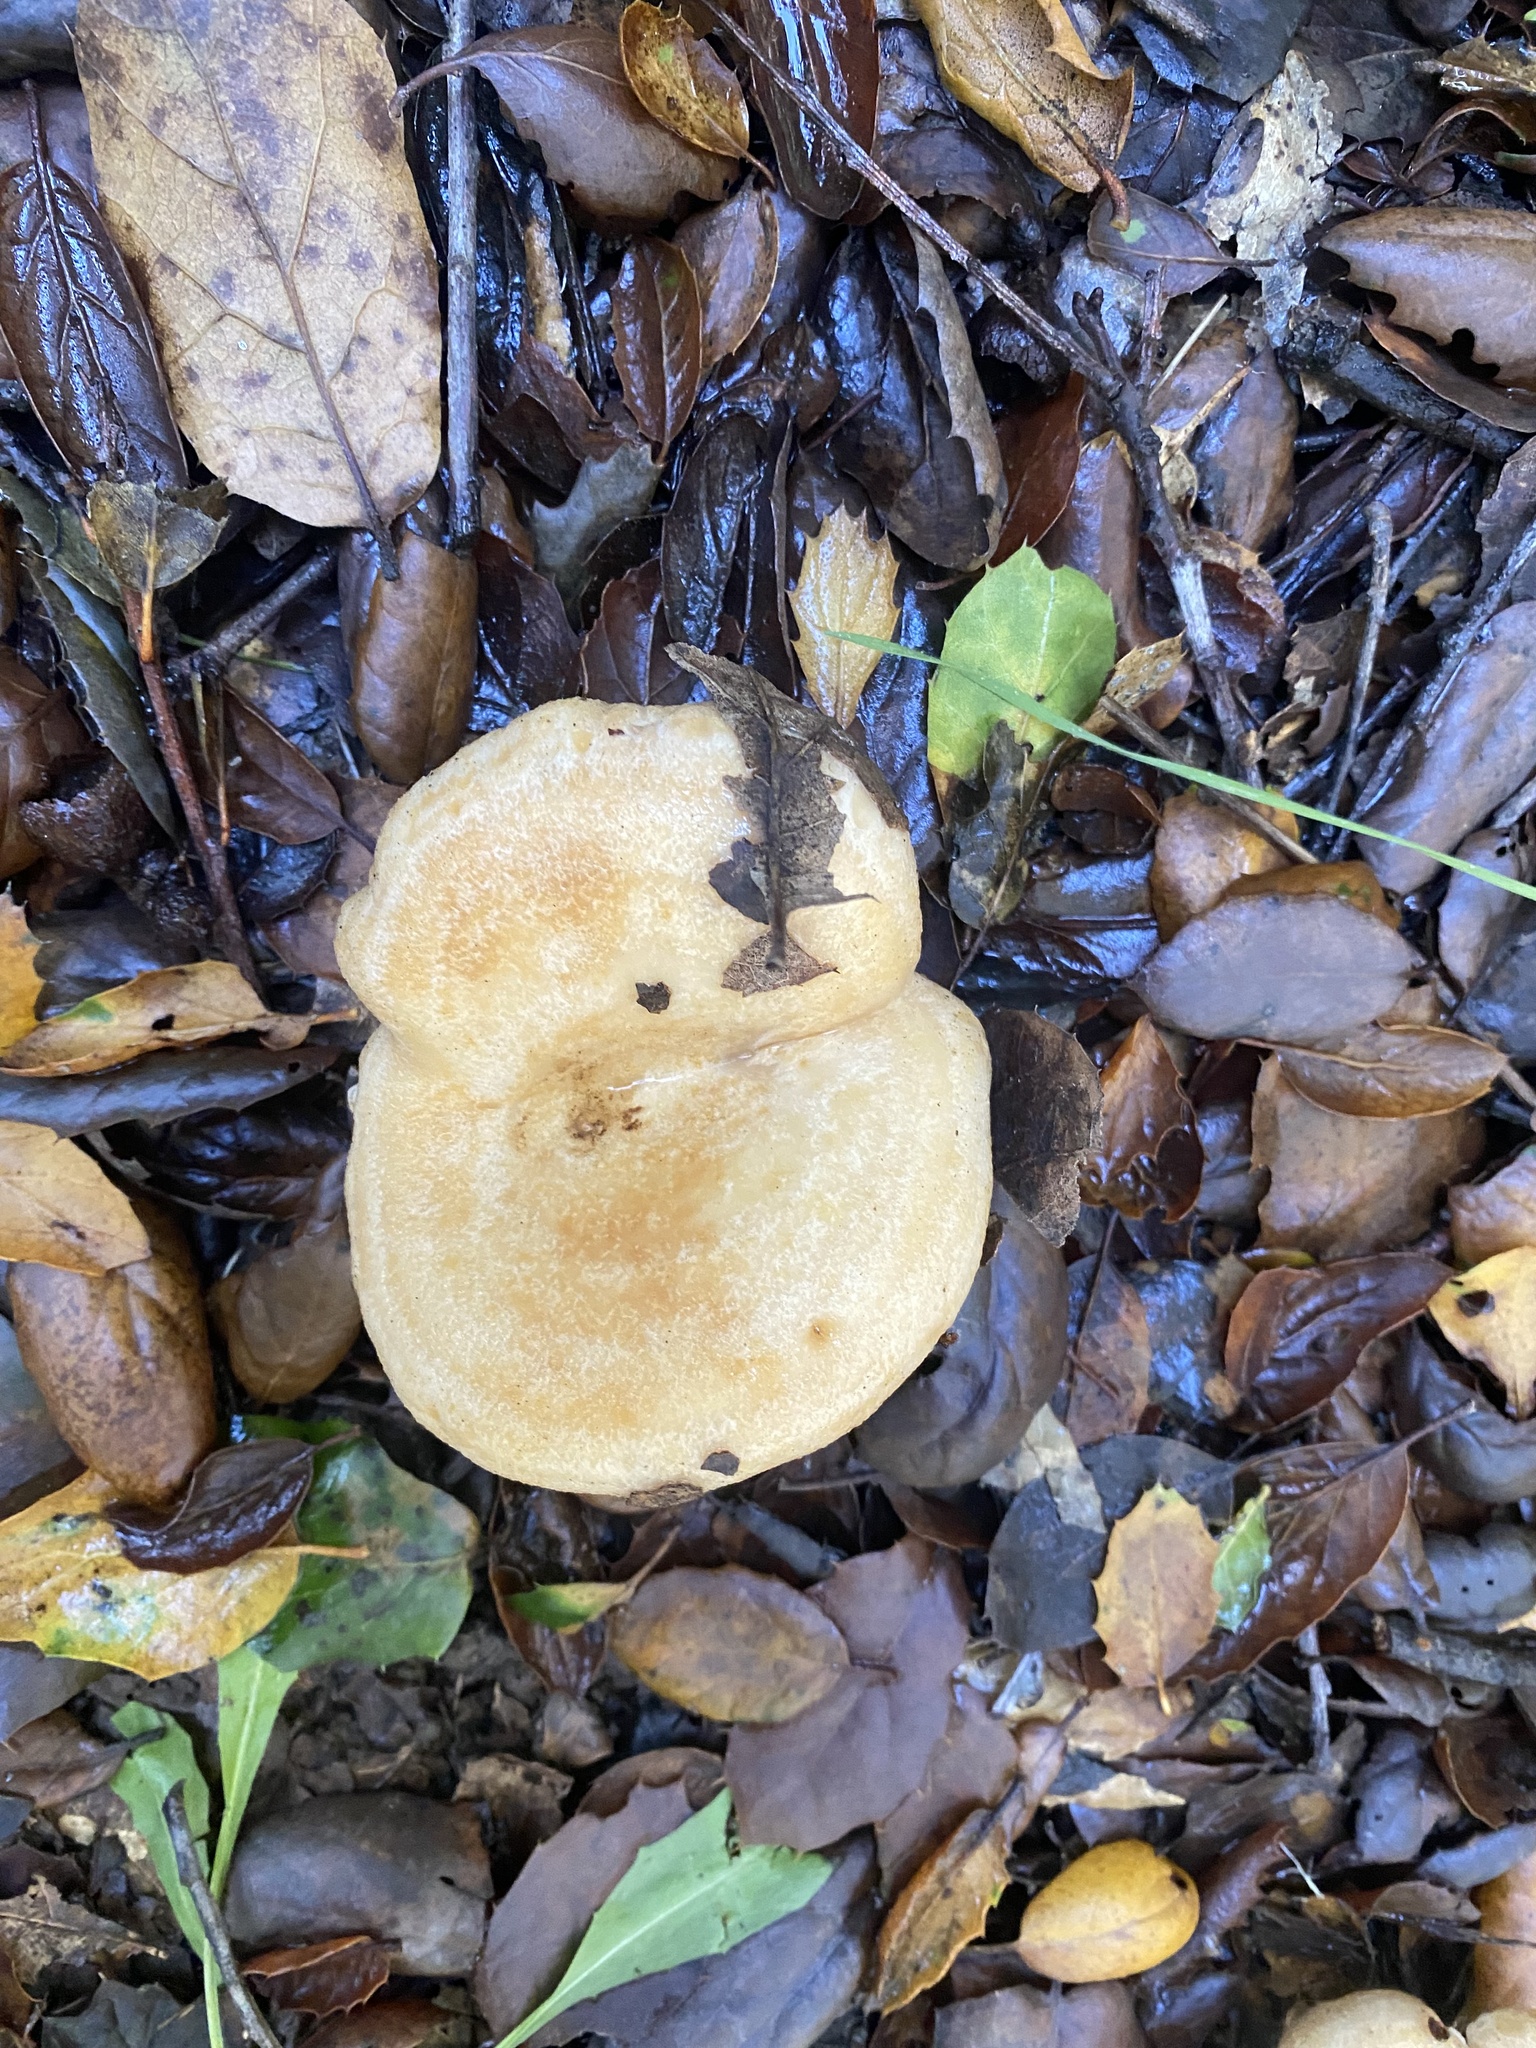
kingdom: Fungi
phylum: Basidiomycota
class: Agaricomycetes
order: Russulales
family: Russulaceae
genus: Lactarius
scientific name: Lactarius alnicola
